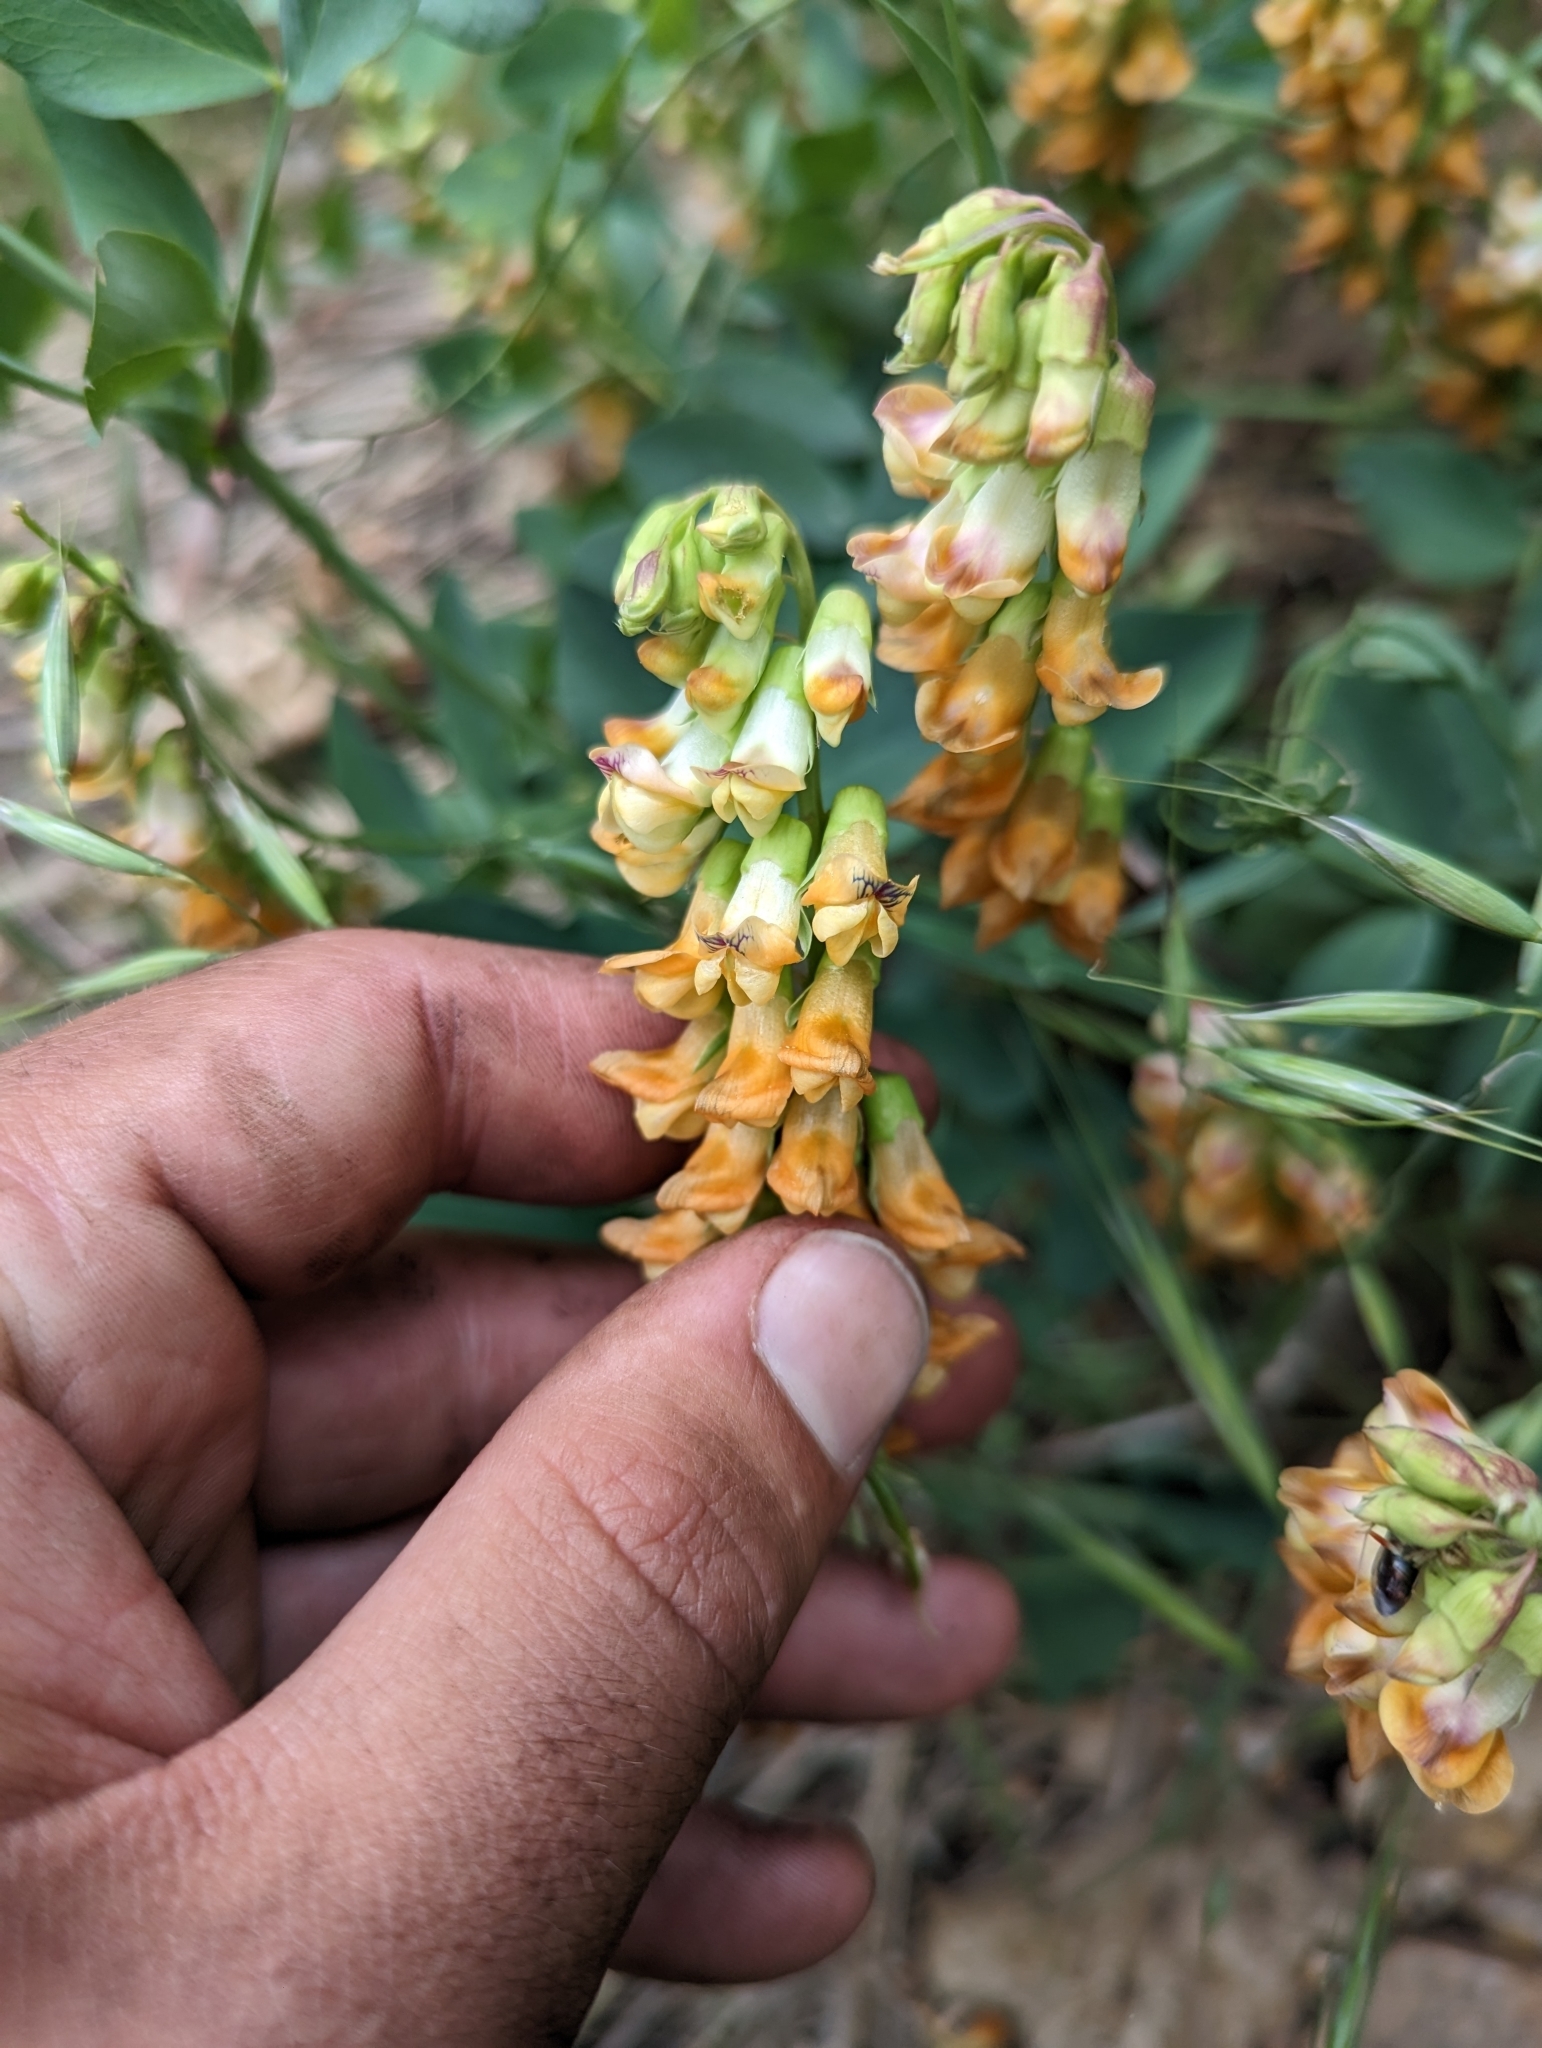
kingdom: Plantae
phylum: Tracheophyta
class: Magnoliopsida
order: Fabales
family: Fabaceae
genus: Lathyrus
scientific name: Lathyrus sulphureus
